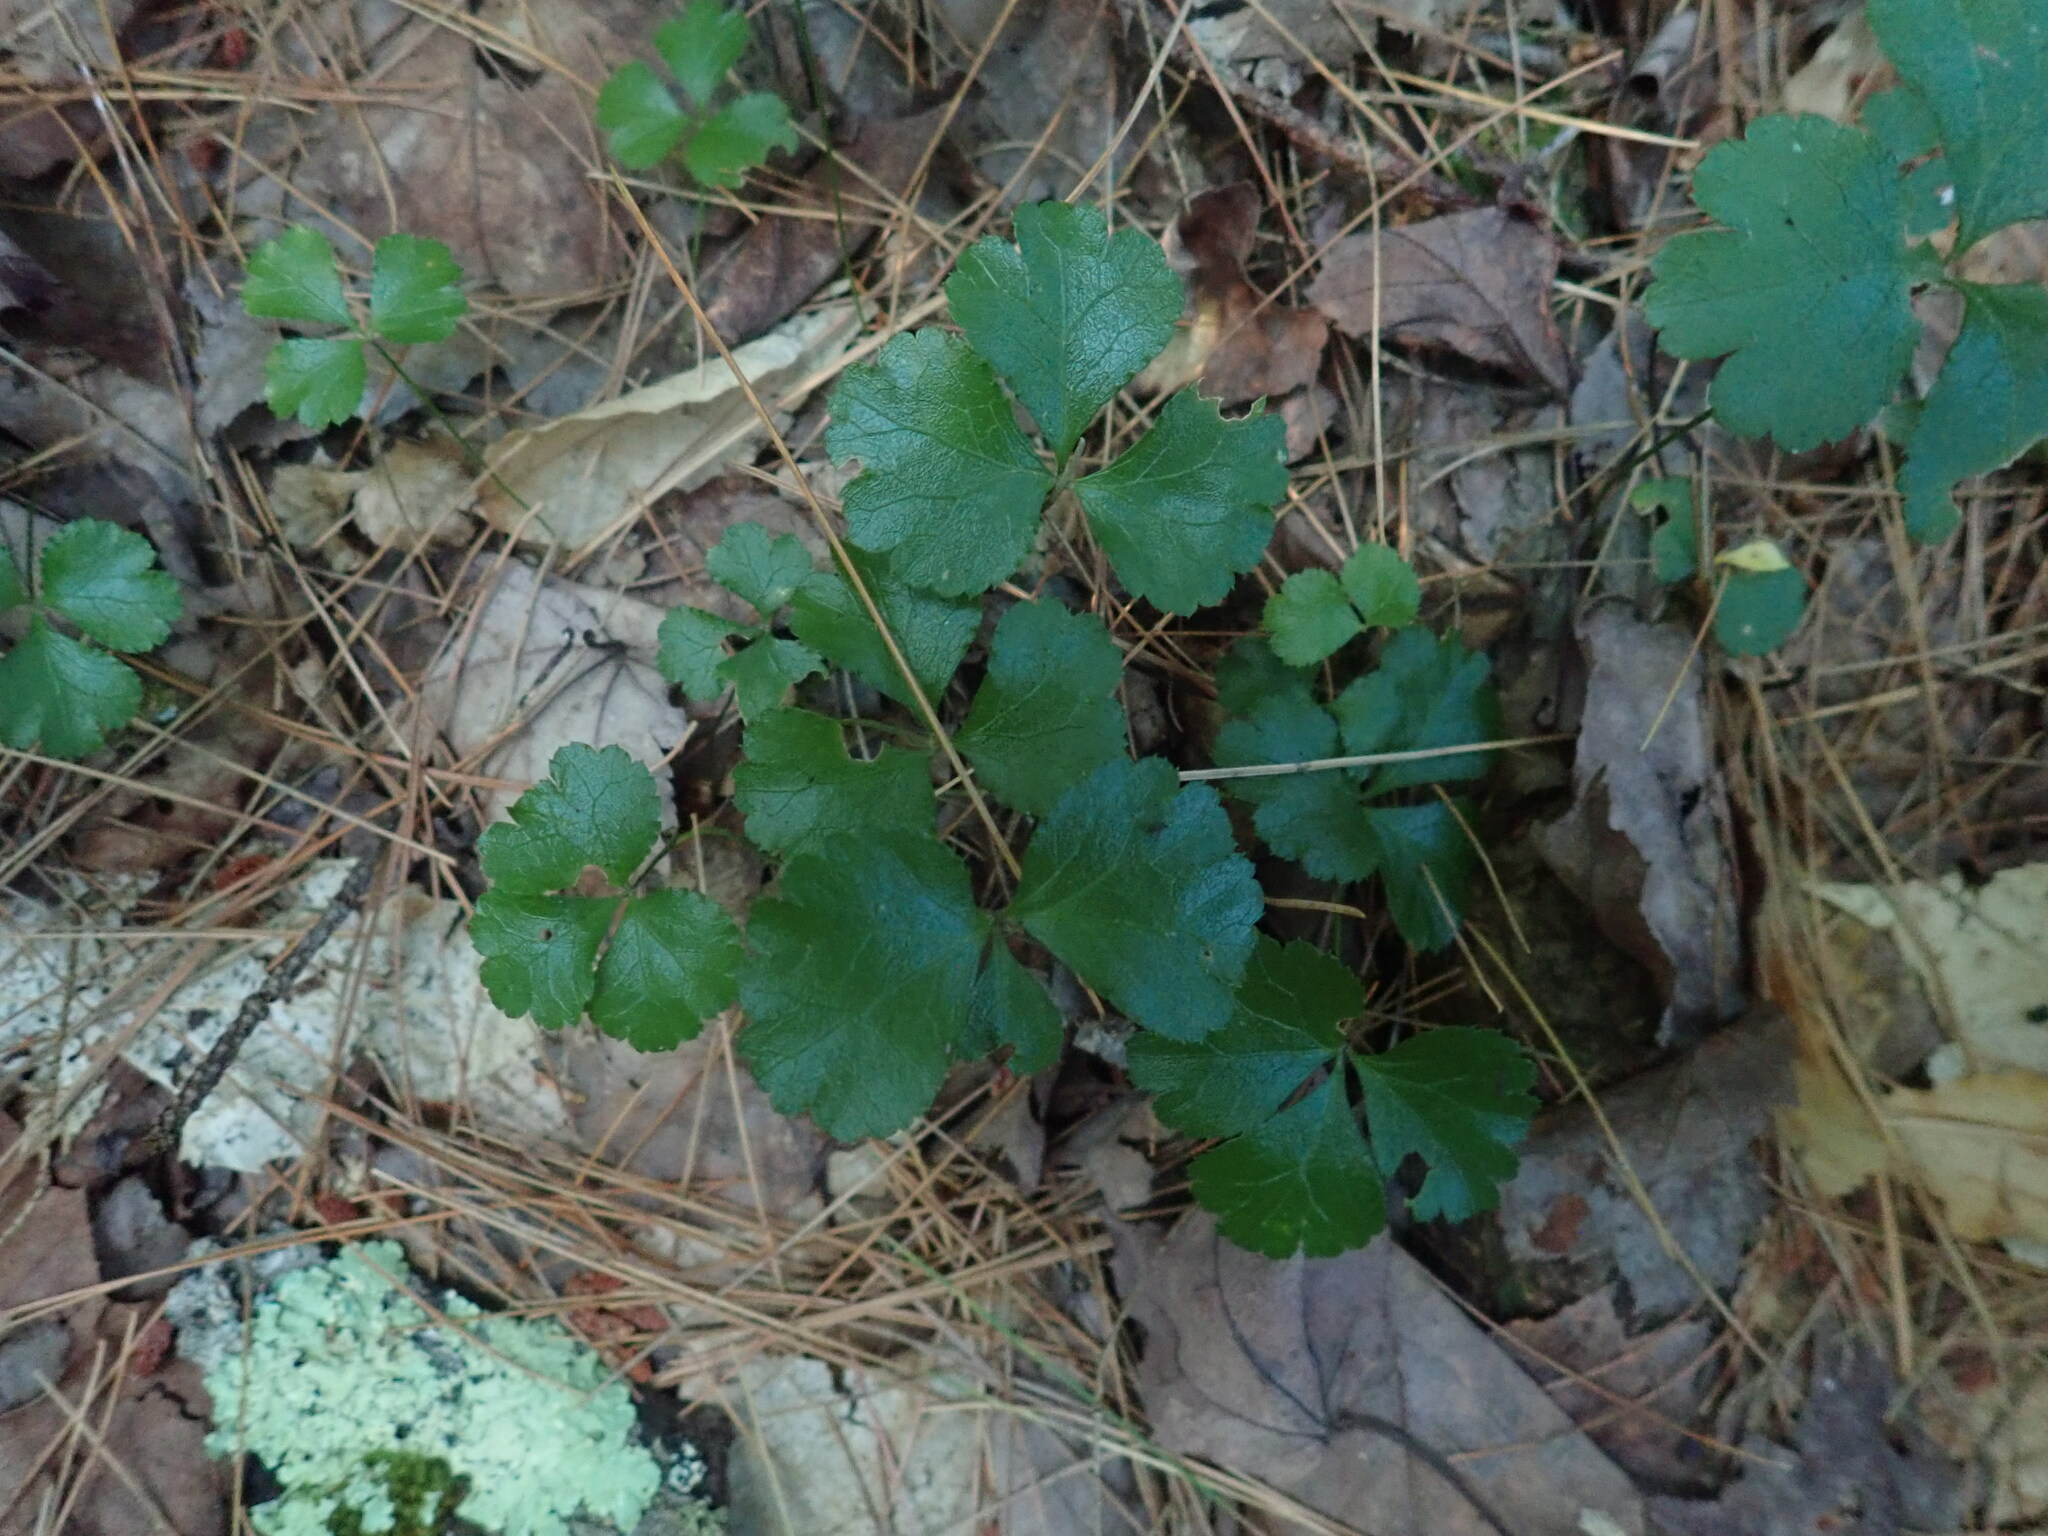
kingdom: Plantae
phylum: Tracheophyta
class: Magnoliopsida
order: Ranunculales
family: Ranunculaceae
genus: Coptis
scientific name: Coptis trifolia
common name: Canker-root
